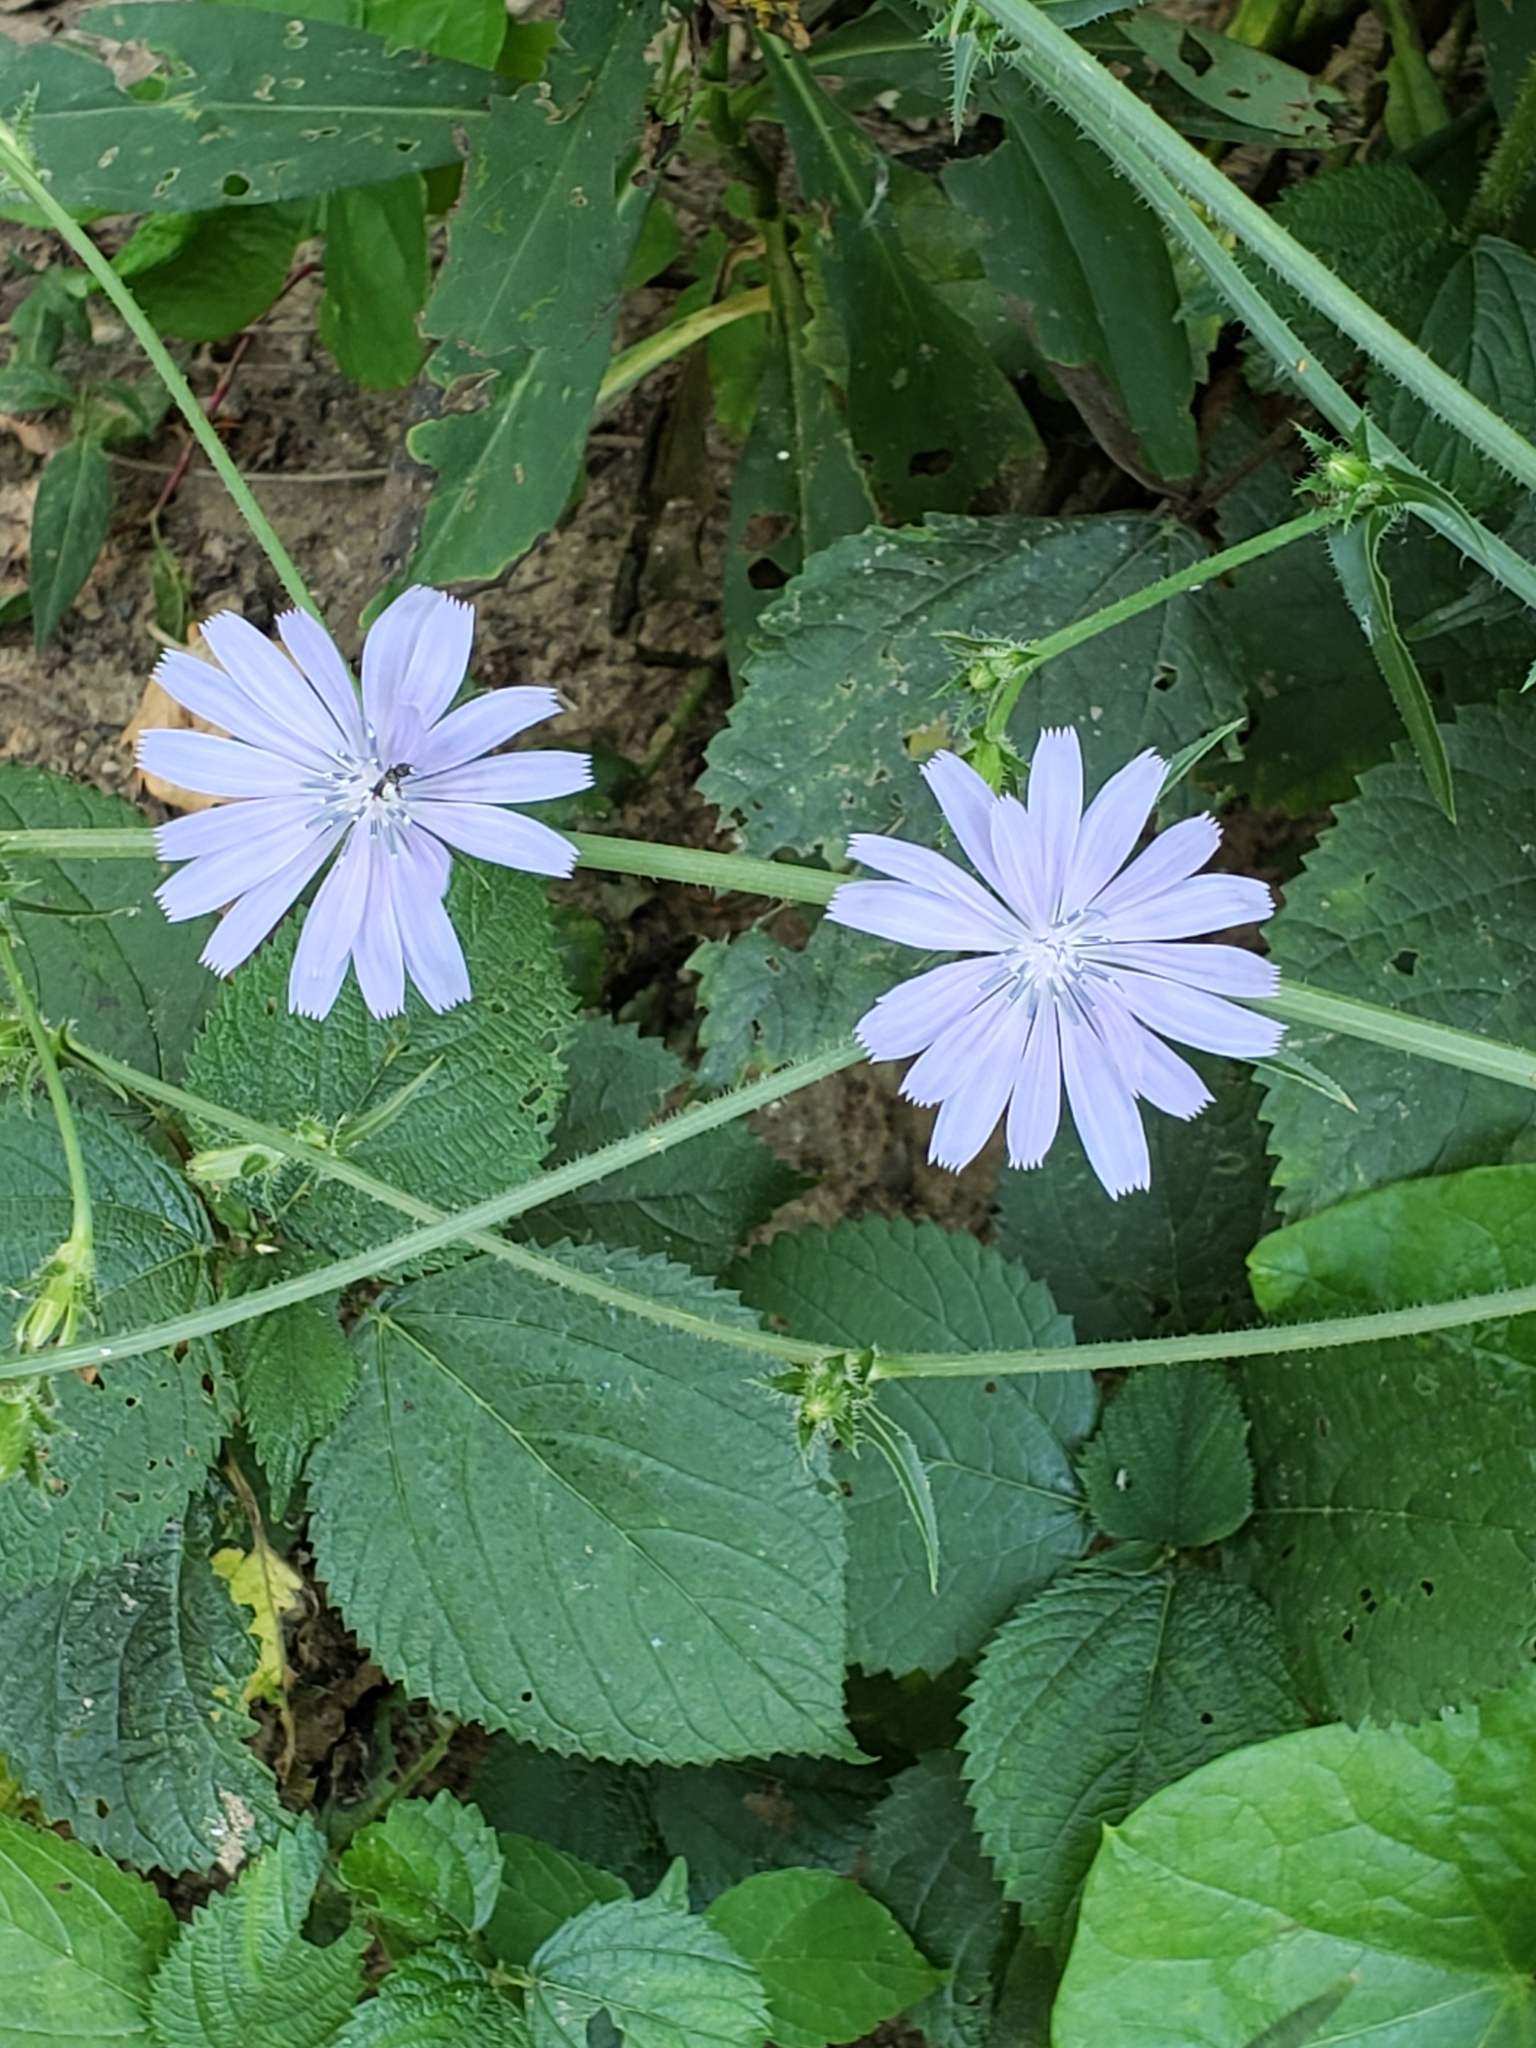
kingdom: Plantae
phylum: Tracheophyta
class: Magnoliopsida
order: Asterales
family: Asteraceae
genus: Cichorium
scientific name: Cichorium intybus
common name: Chicory
